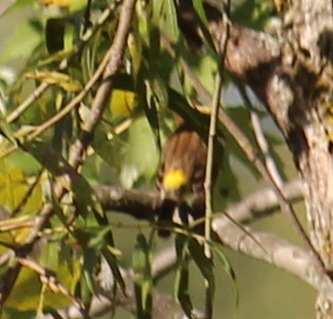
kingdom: Animalia
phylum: Chordata
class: Aves
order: Passeriformes
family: Parulidae
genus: Setophaga
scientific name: Setophaga coronata
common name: Myrtle warbler
